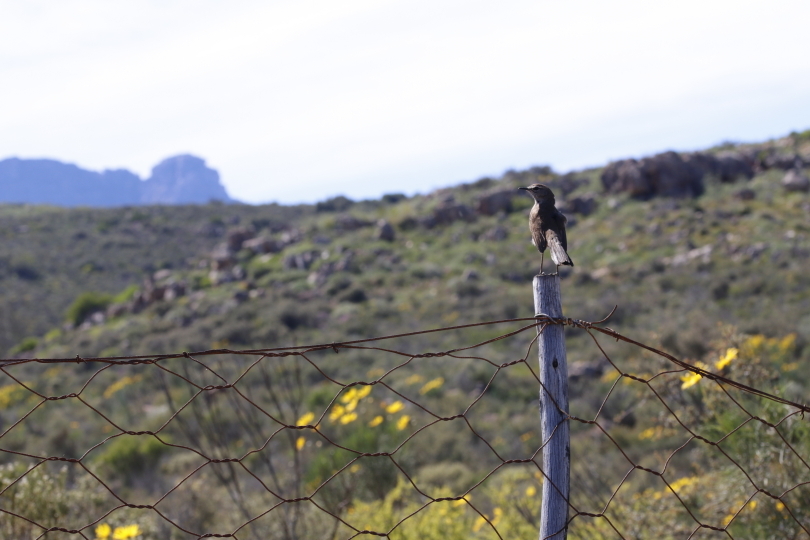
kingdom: Animalia
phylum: Chordata
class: Aves
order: Passeriformes
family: Muscicapidae
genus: Erythropygia
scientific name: Erythropygia coryphoeus
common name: Karoo scrub robin
